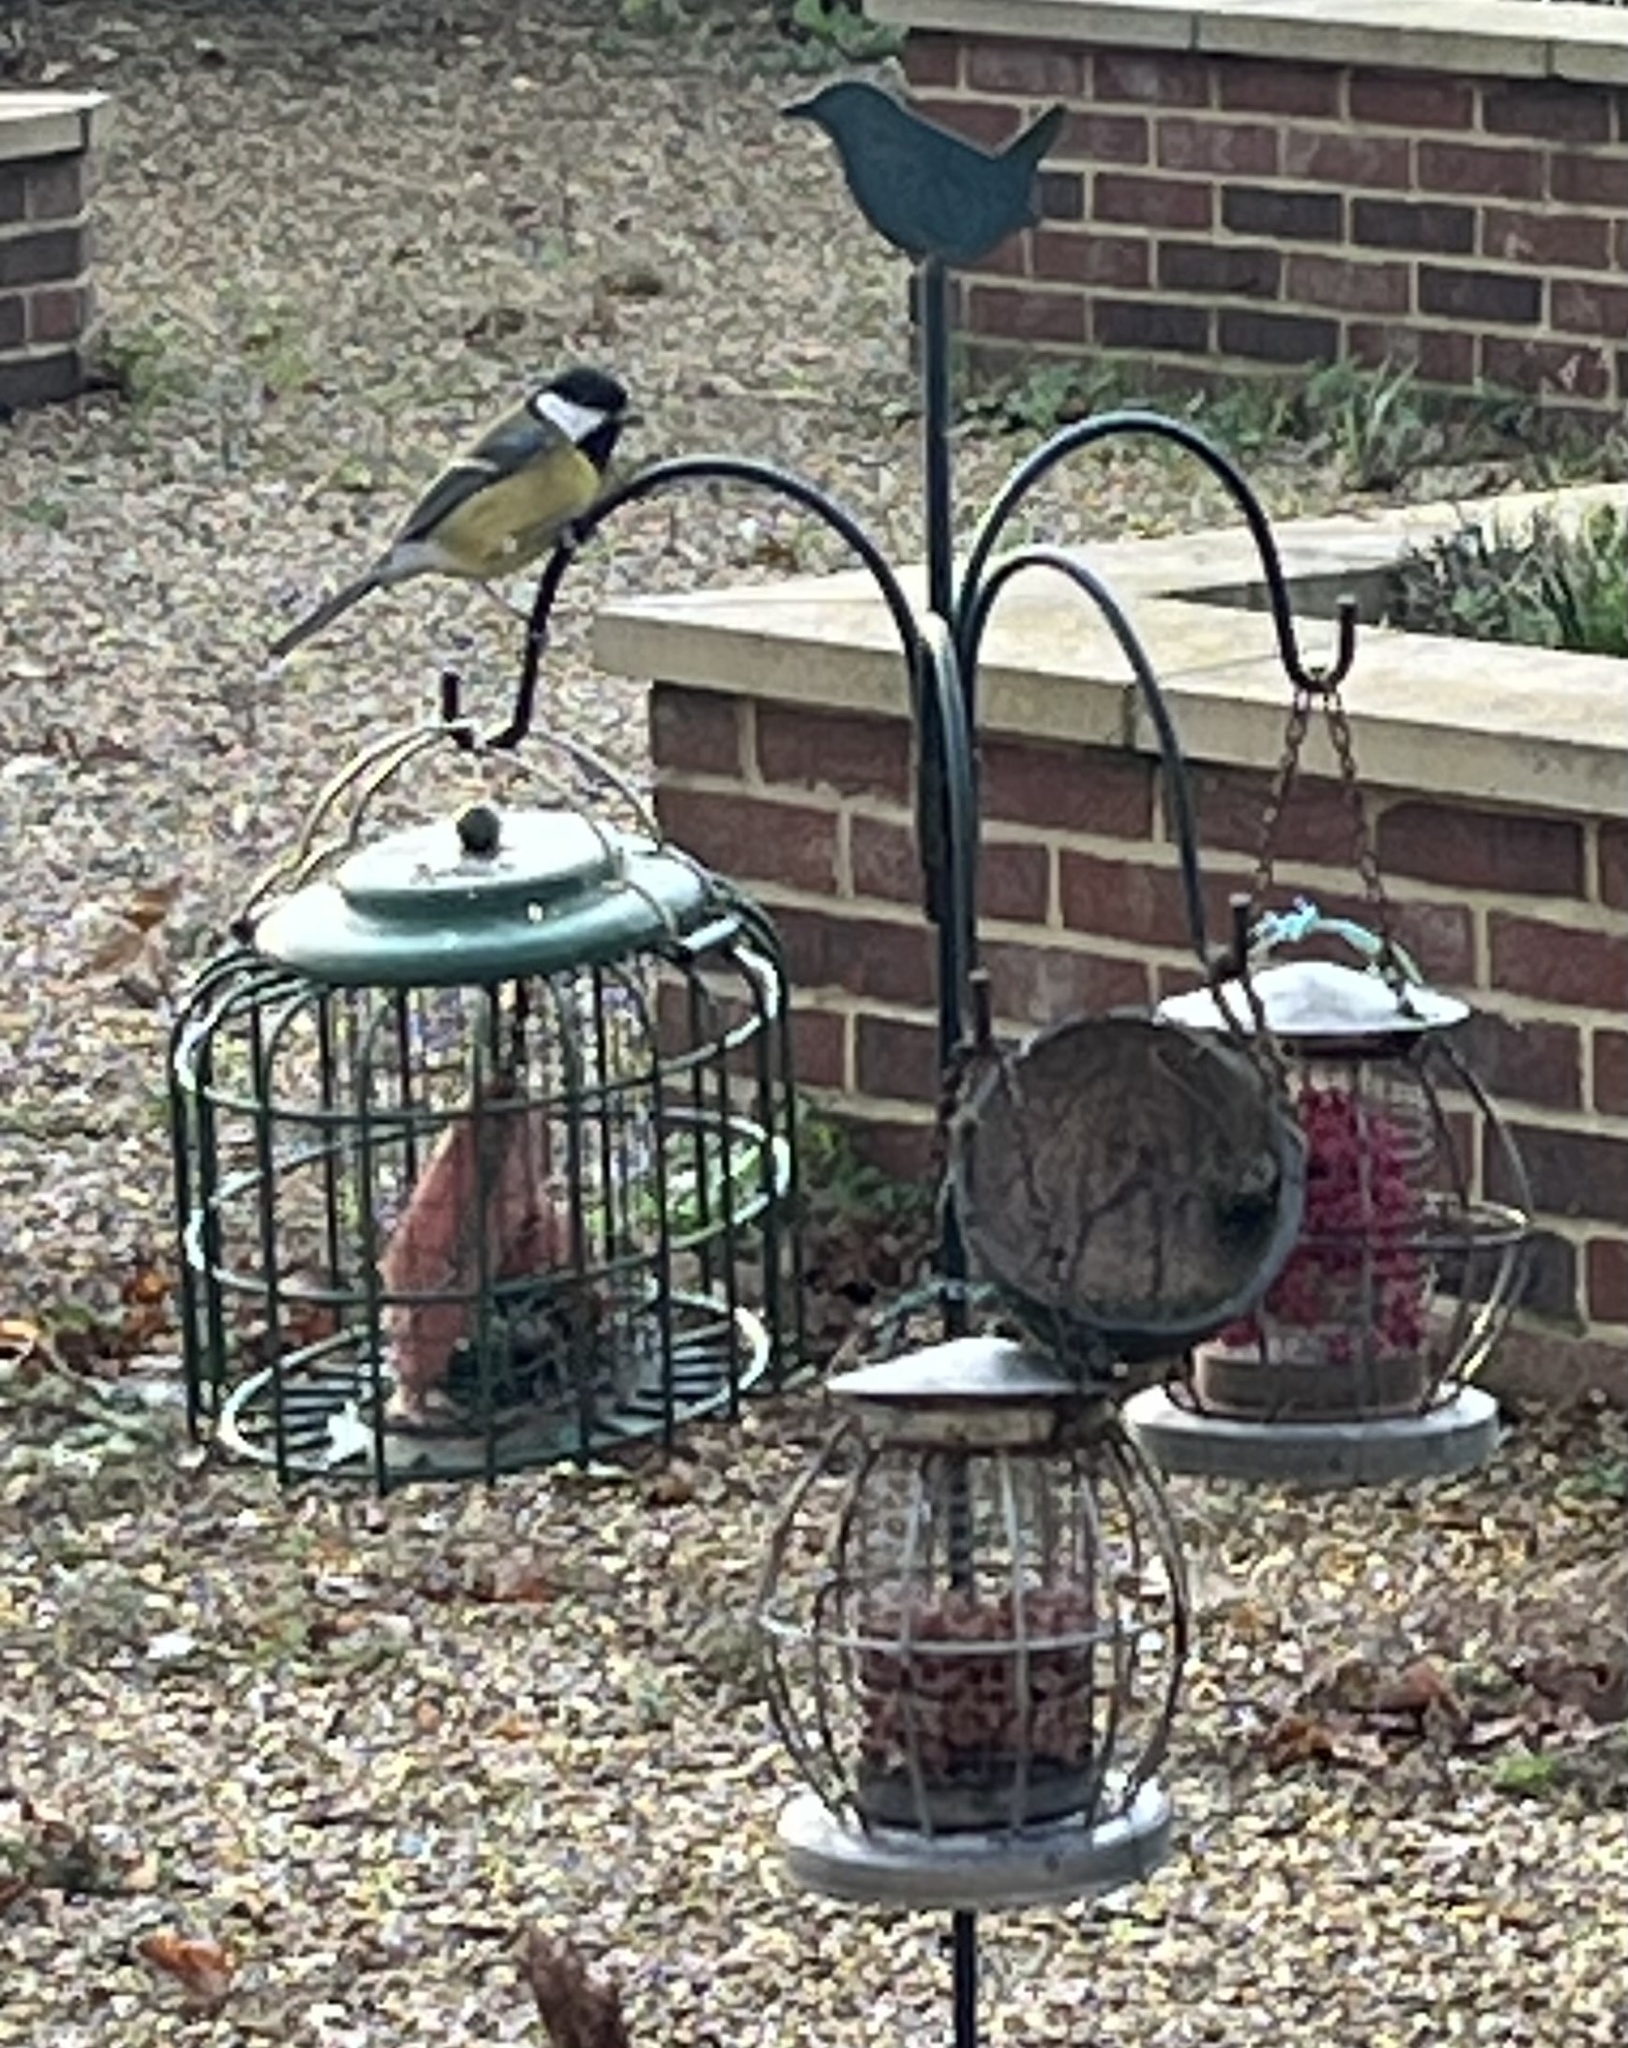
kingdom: Animalia
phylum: Chordata
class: Aves
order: Passeriformes
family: Paridae
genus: Parus
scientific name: Parus major
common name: Great tit
